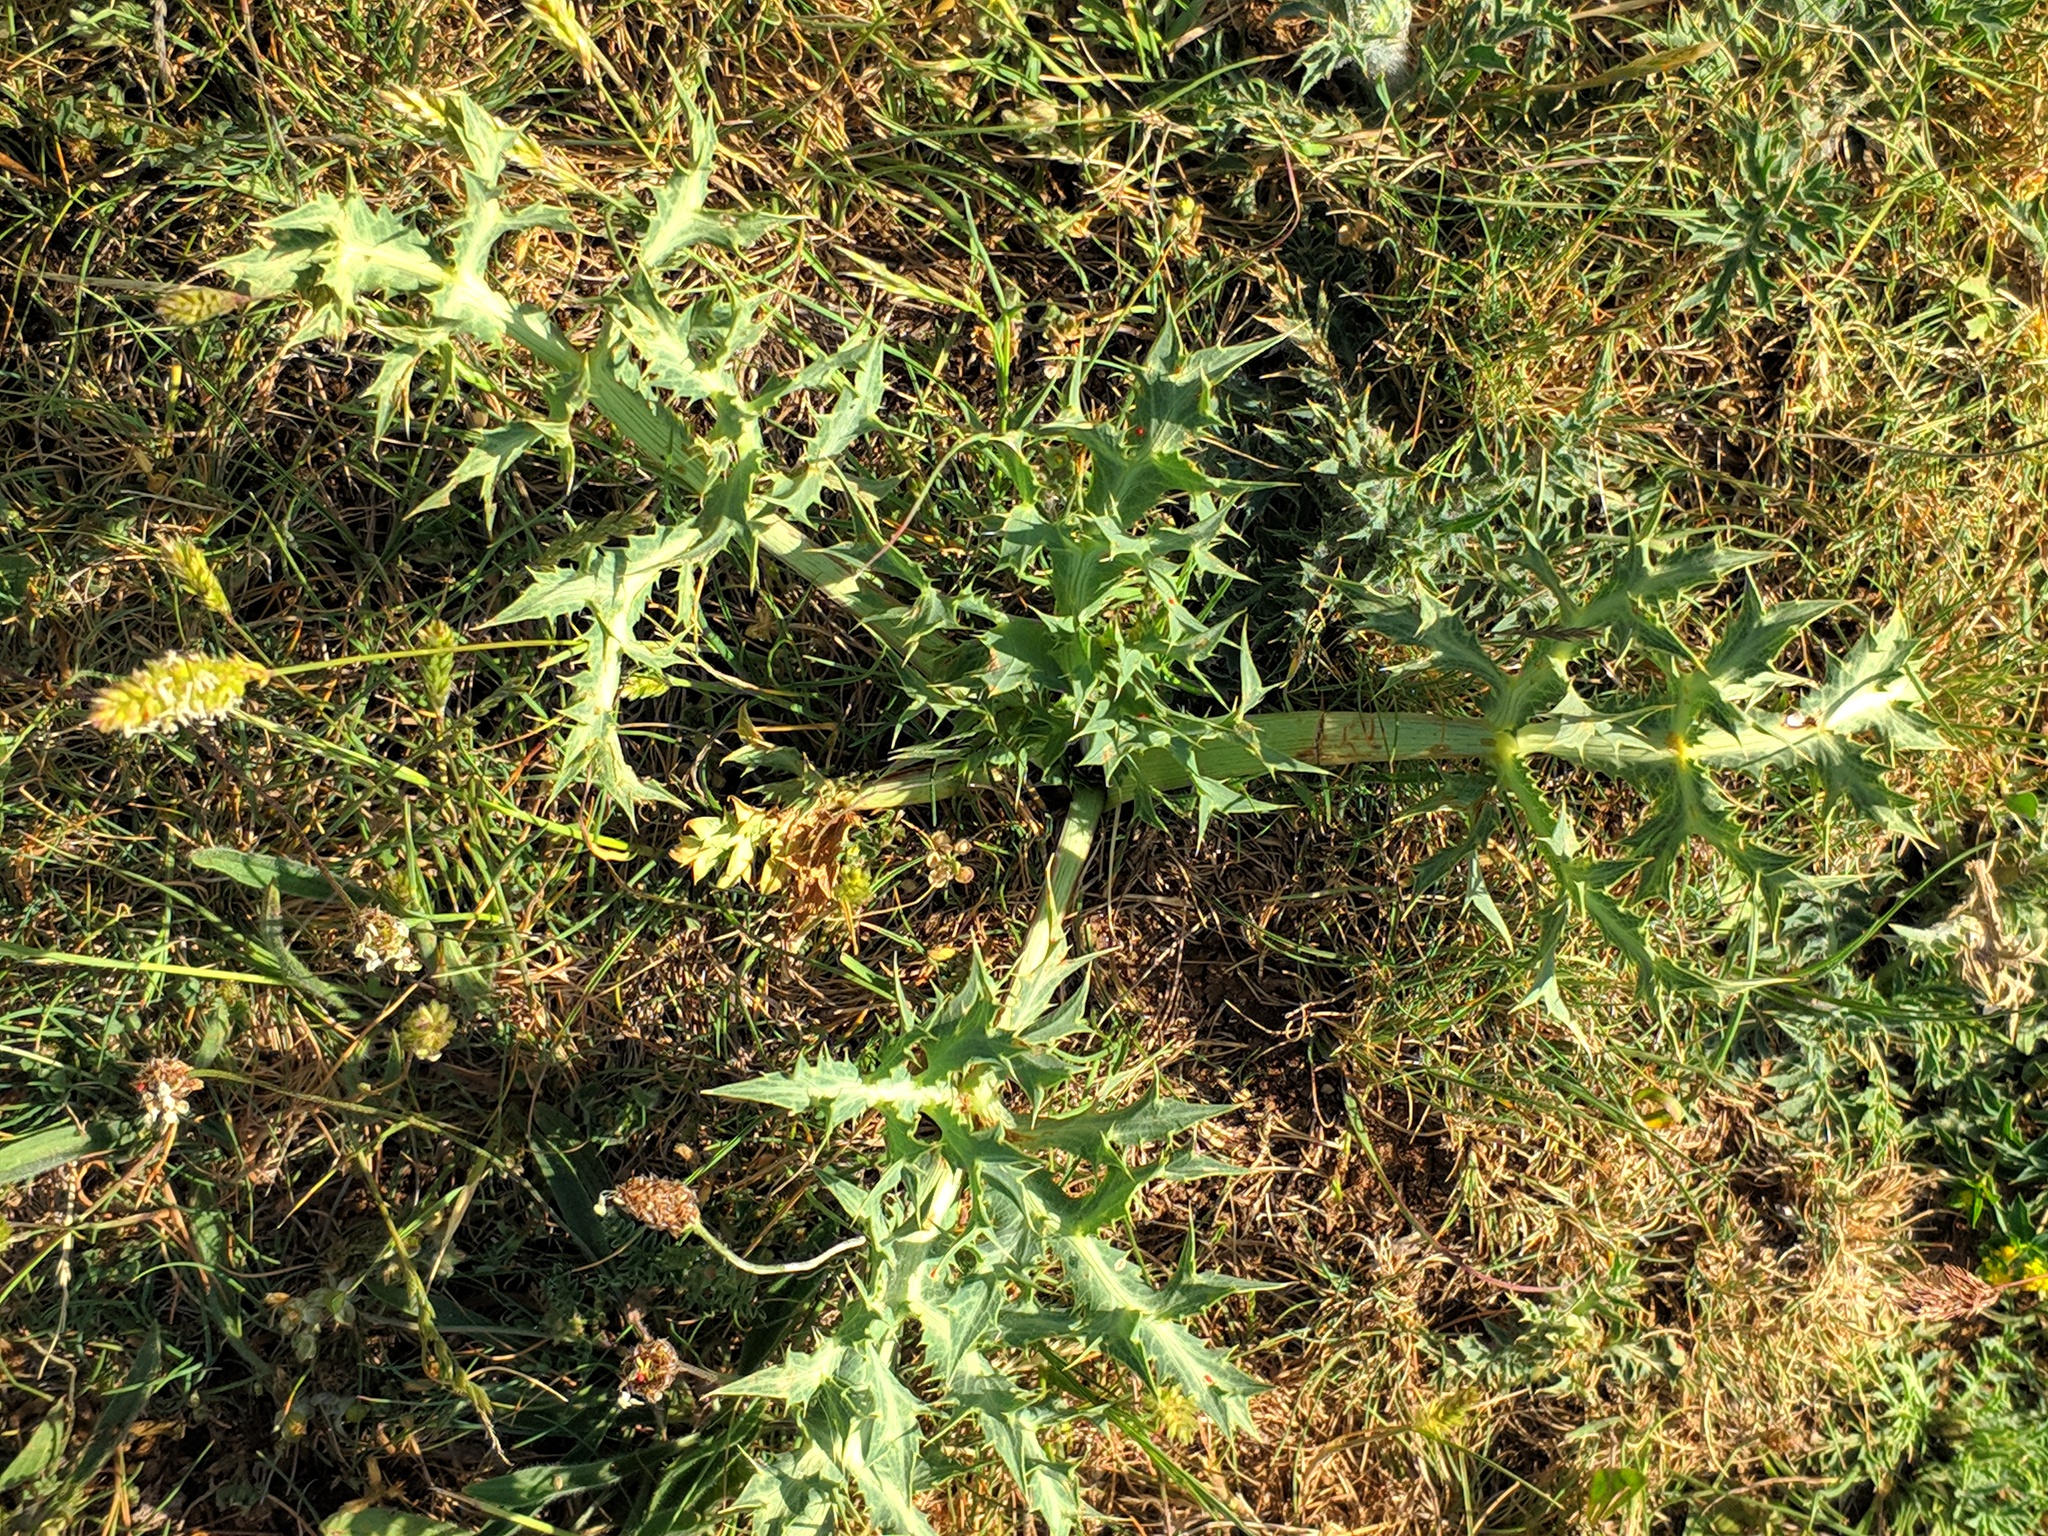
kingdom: Plantae
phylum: Tracheophyta
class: Magnoliopsida
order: Apiales
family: Apiaceae
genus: Eryngium
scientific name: Eryngium campestre
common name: Field eryngo
